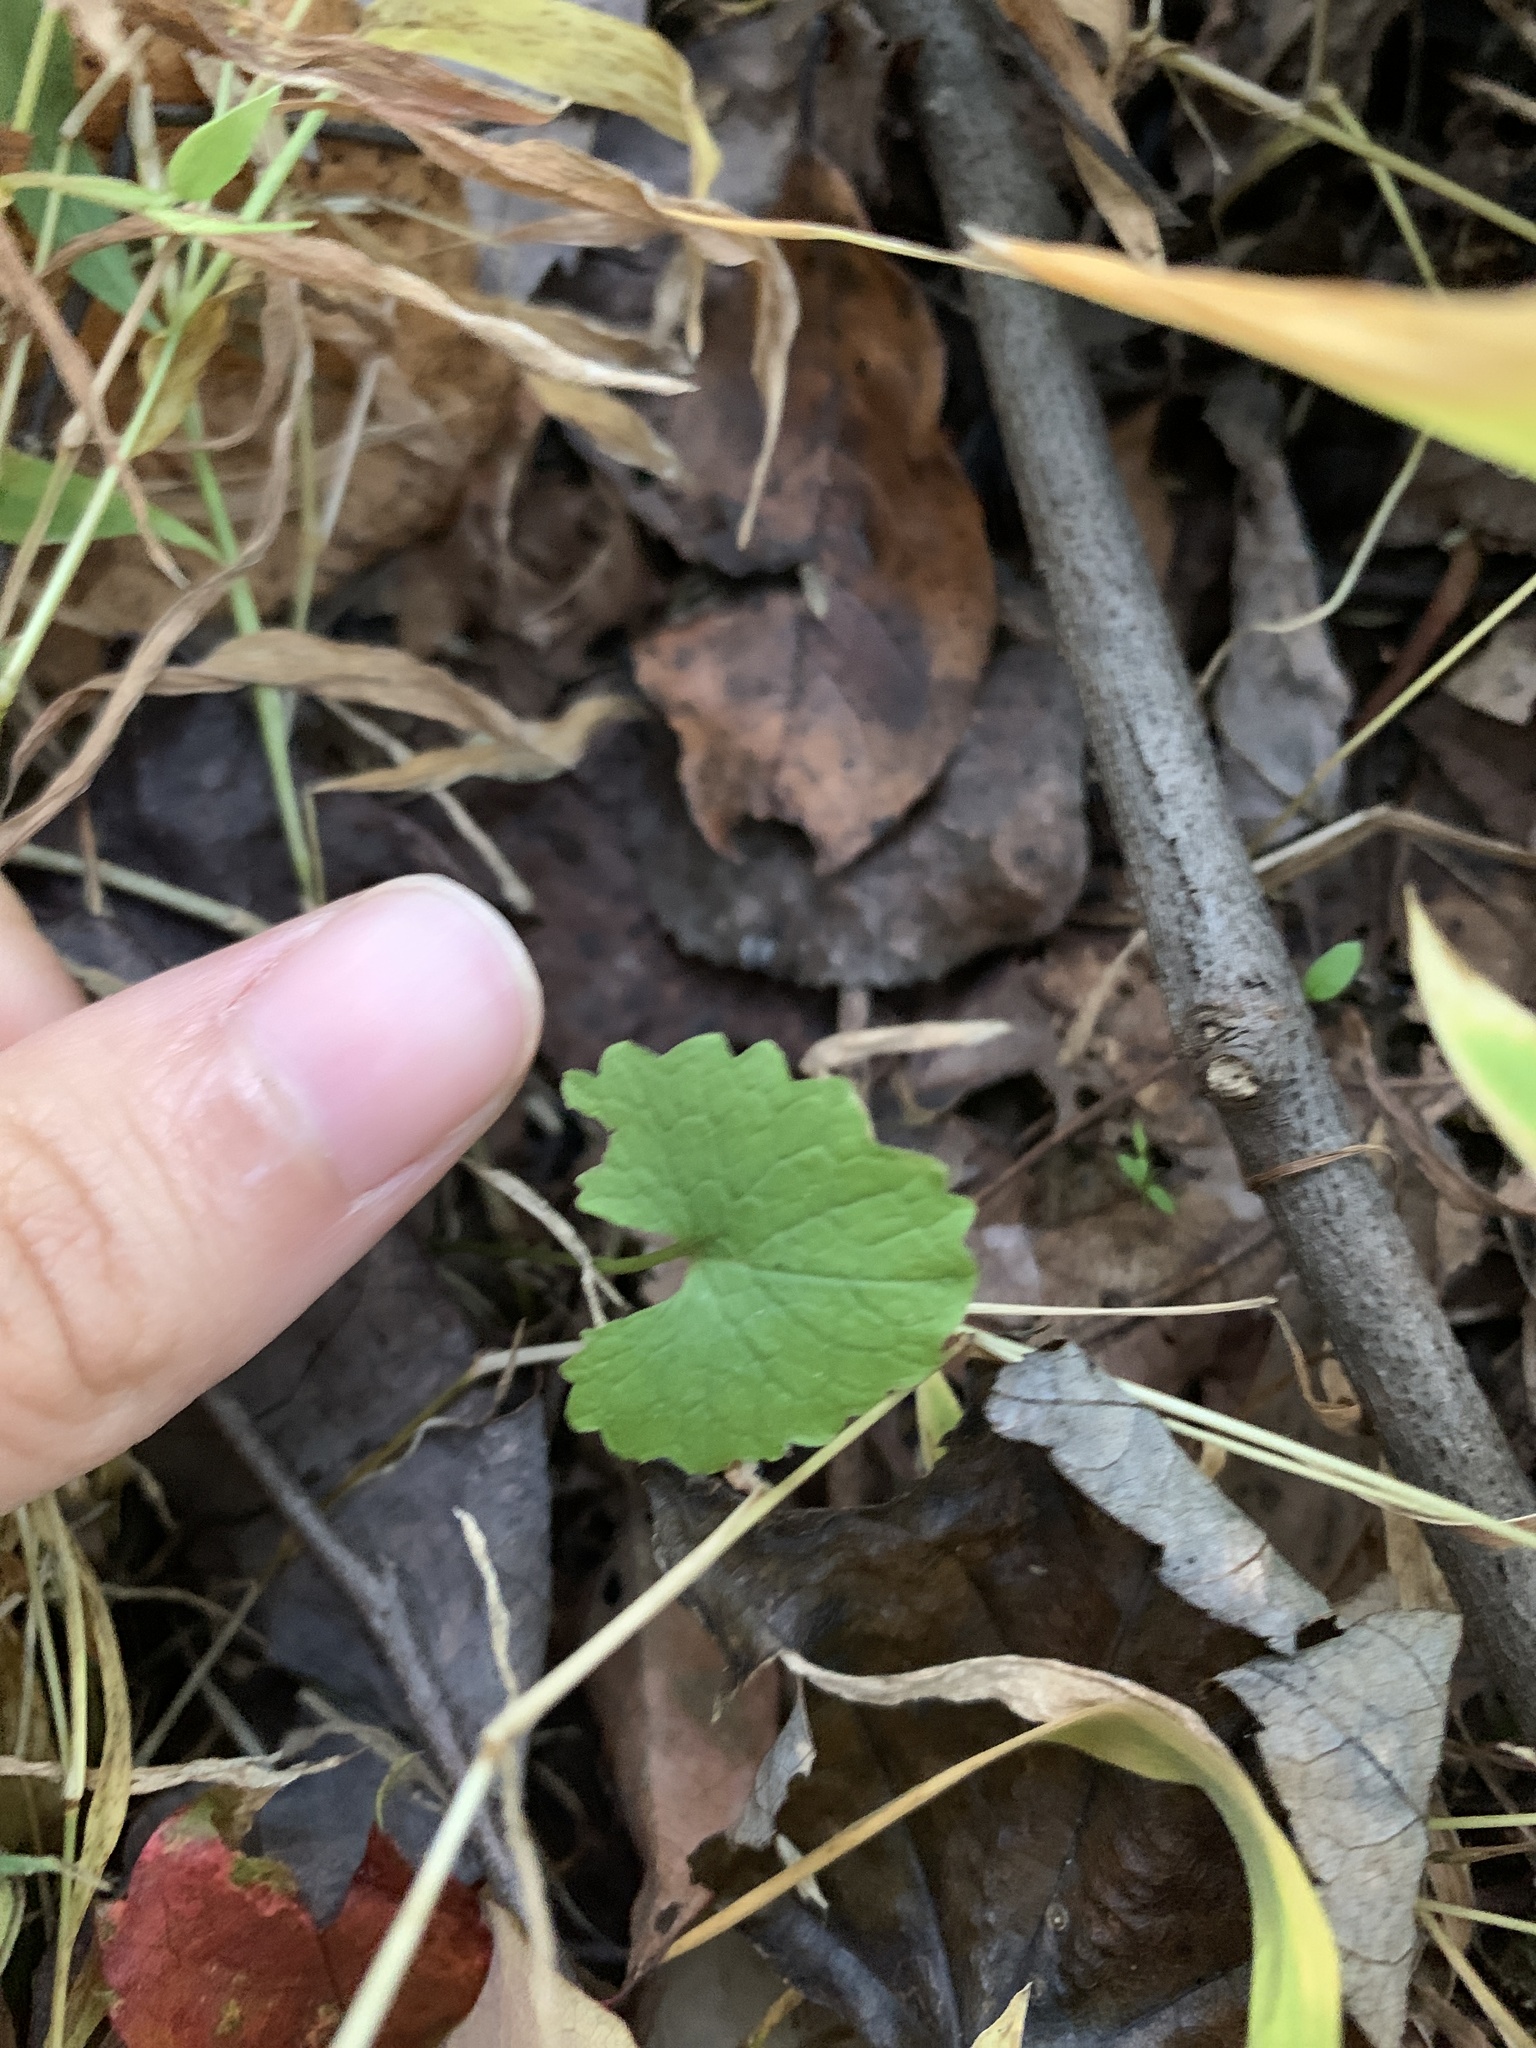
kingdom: Plantae
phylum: Tracheophyta
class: Magnoliopsida
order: Brassicales
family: Brassicaceae
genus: Alliaria
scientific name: Alliaria petiolata
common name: Garlic mustard
